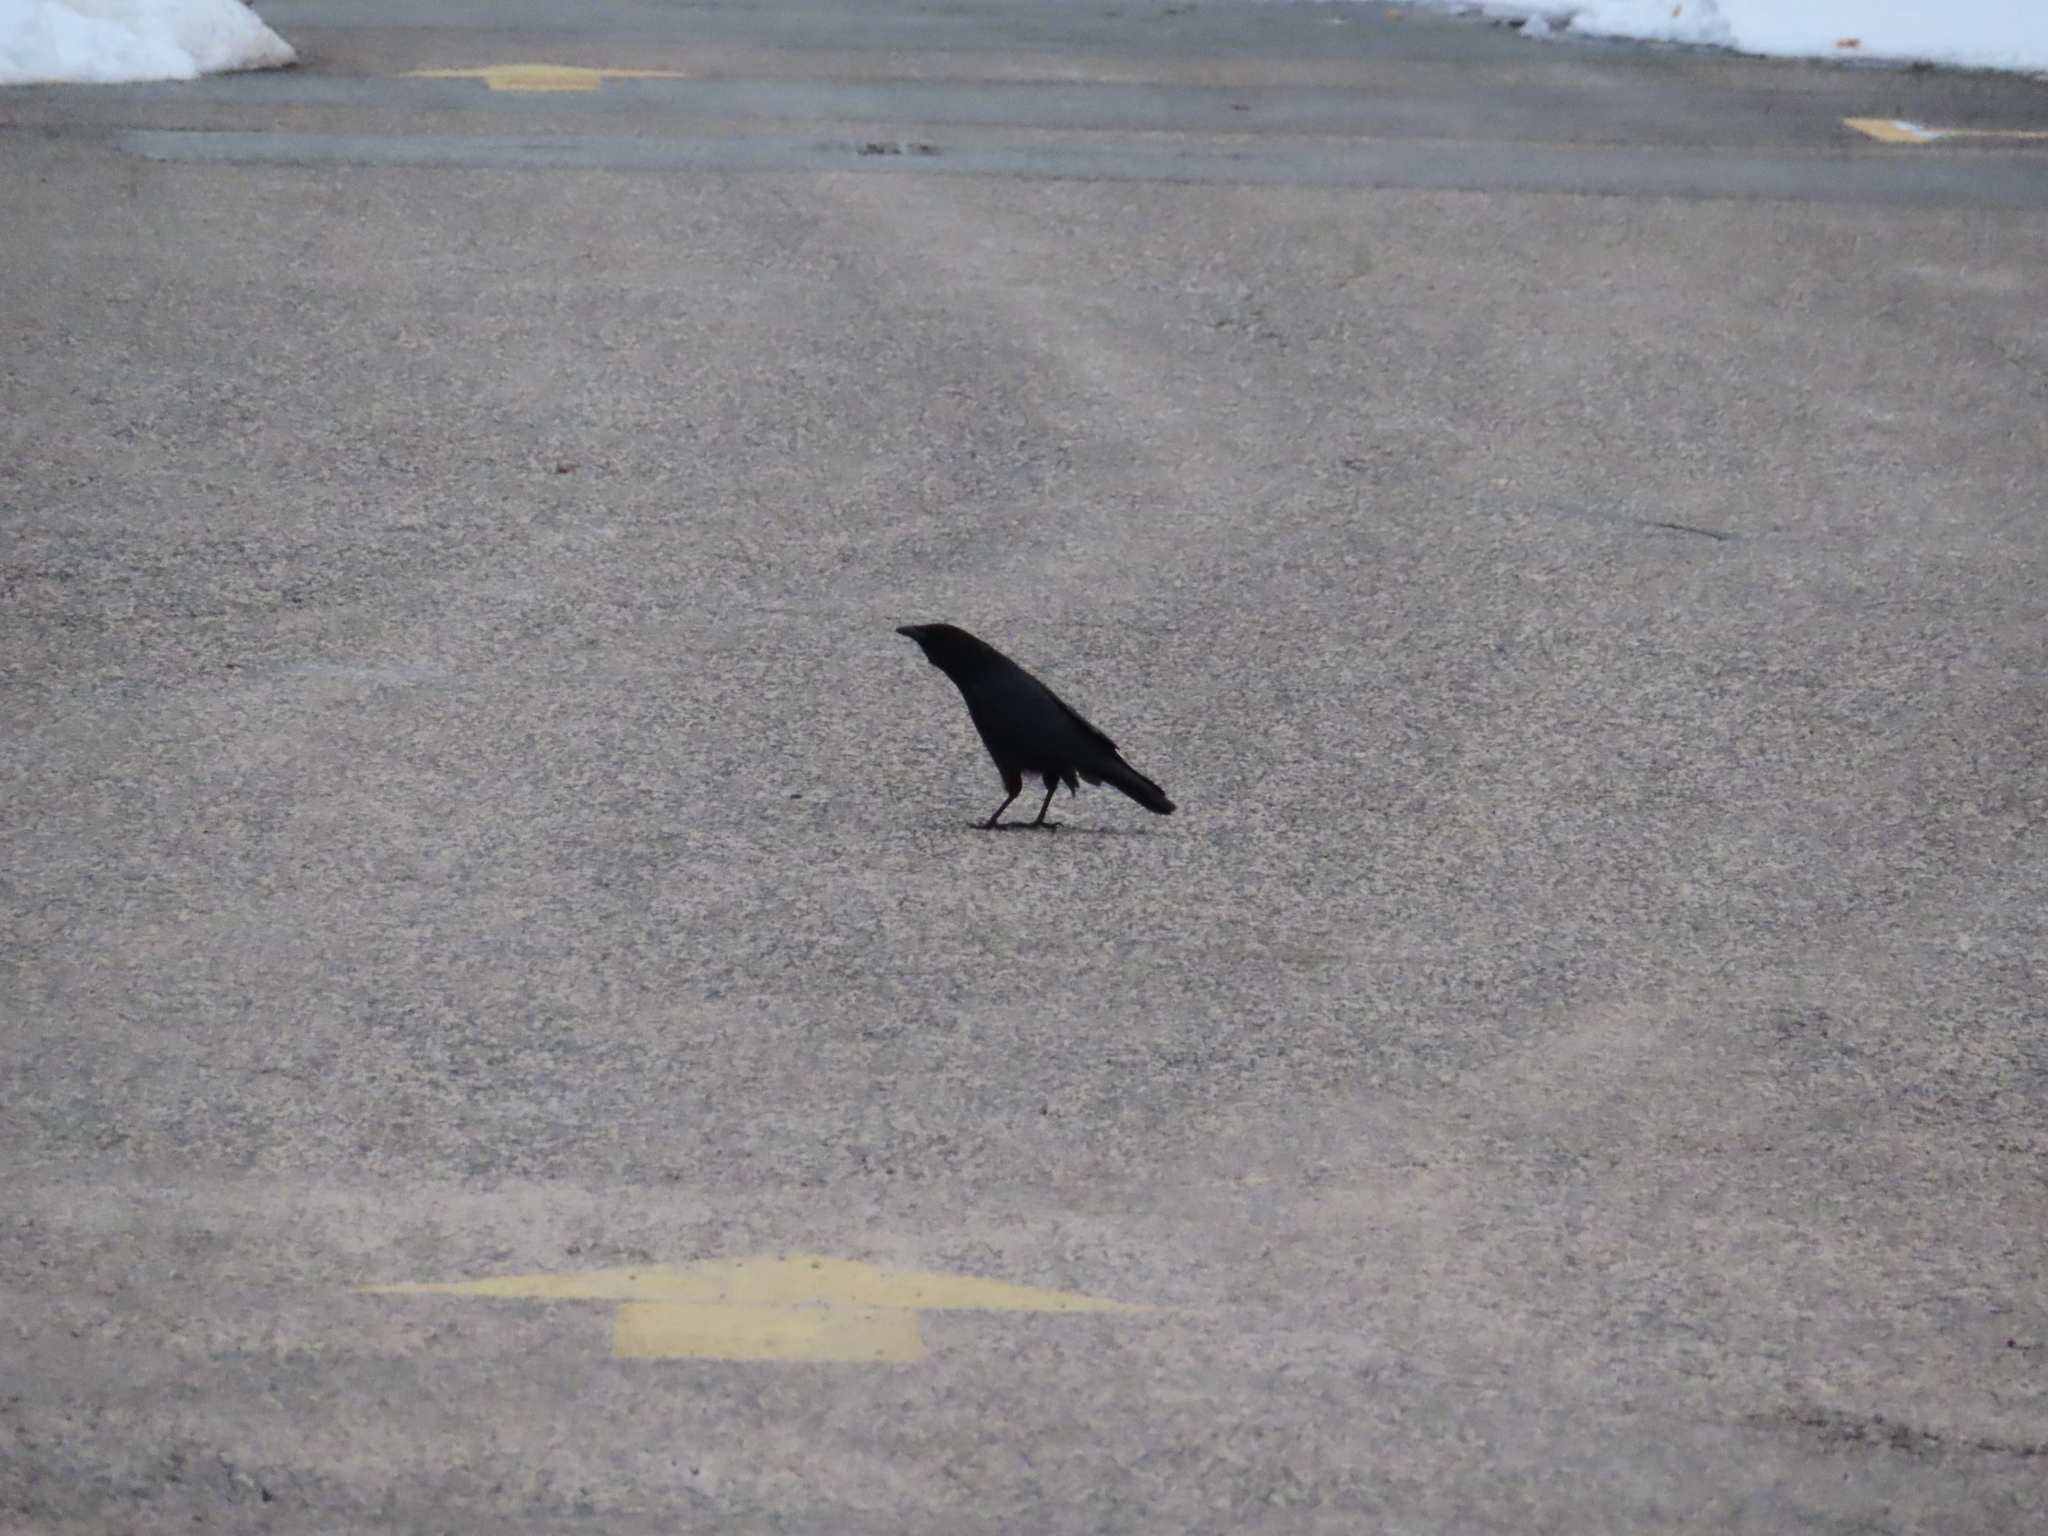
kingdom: Animalia
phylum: Chordata
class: Aves
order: Passeriformes
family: Corvidae
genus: Corvus
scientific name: Corvus brachyrhynchos
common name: American crow
